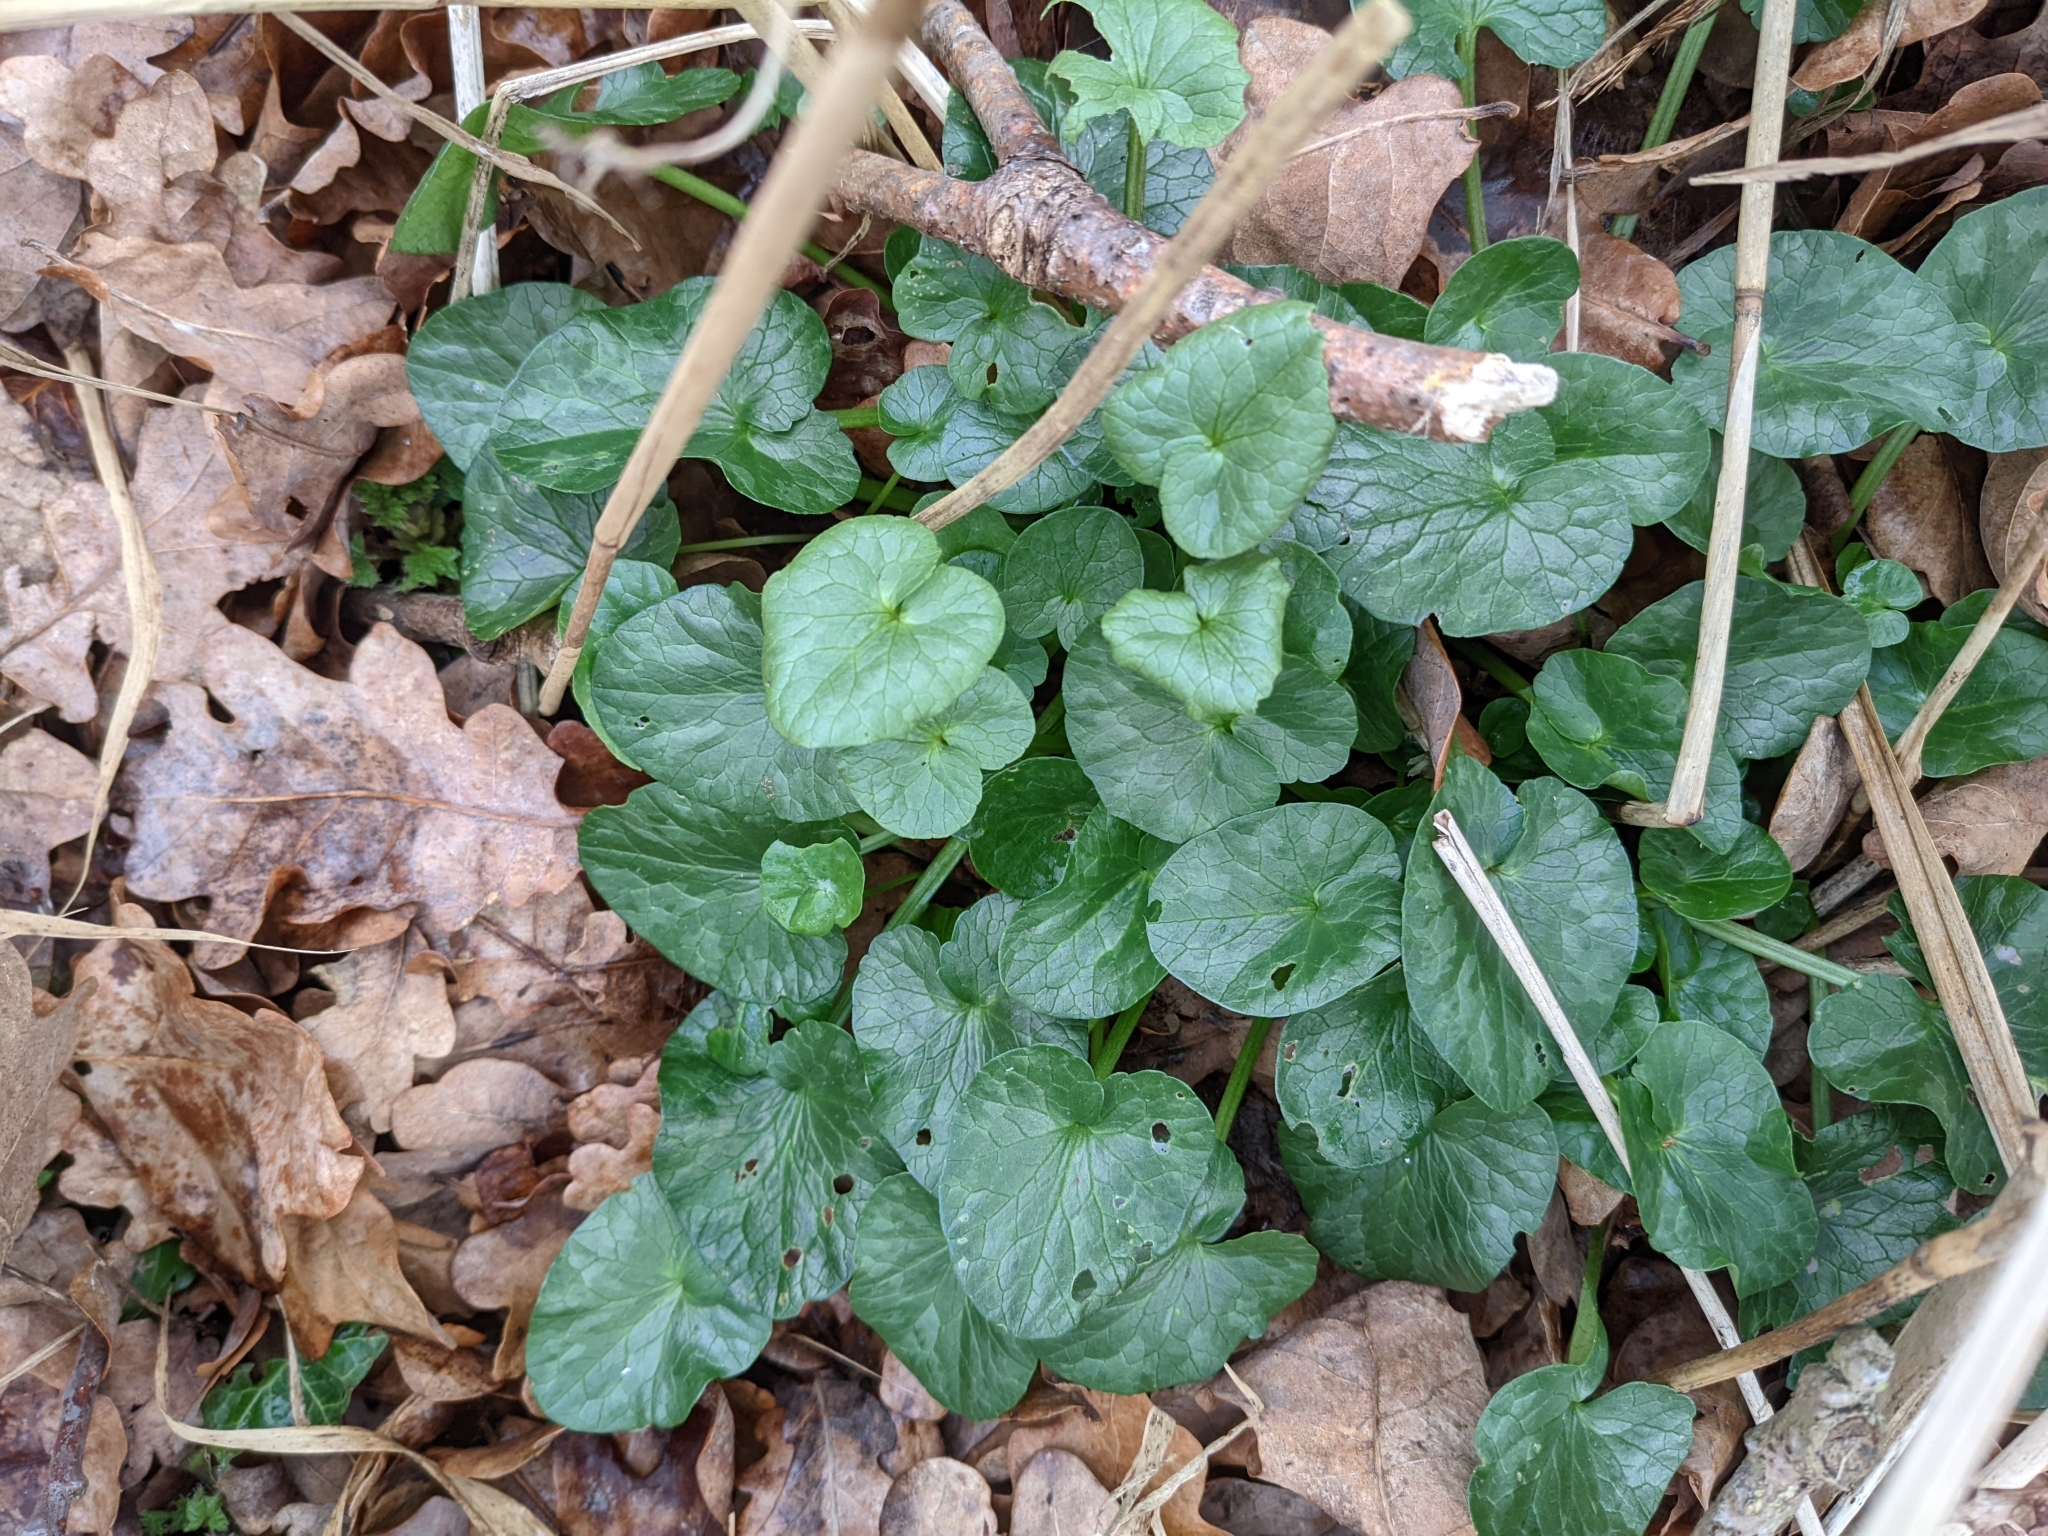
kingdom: Plantae
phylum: Tracheophyta
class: Magnoliopsida
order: Ranunculales
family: Ranunculaceae
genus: Ficaria
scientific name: Ficaria verna
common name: Lesser celandine
